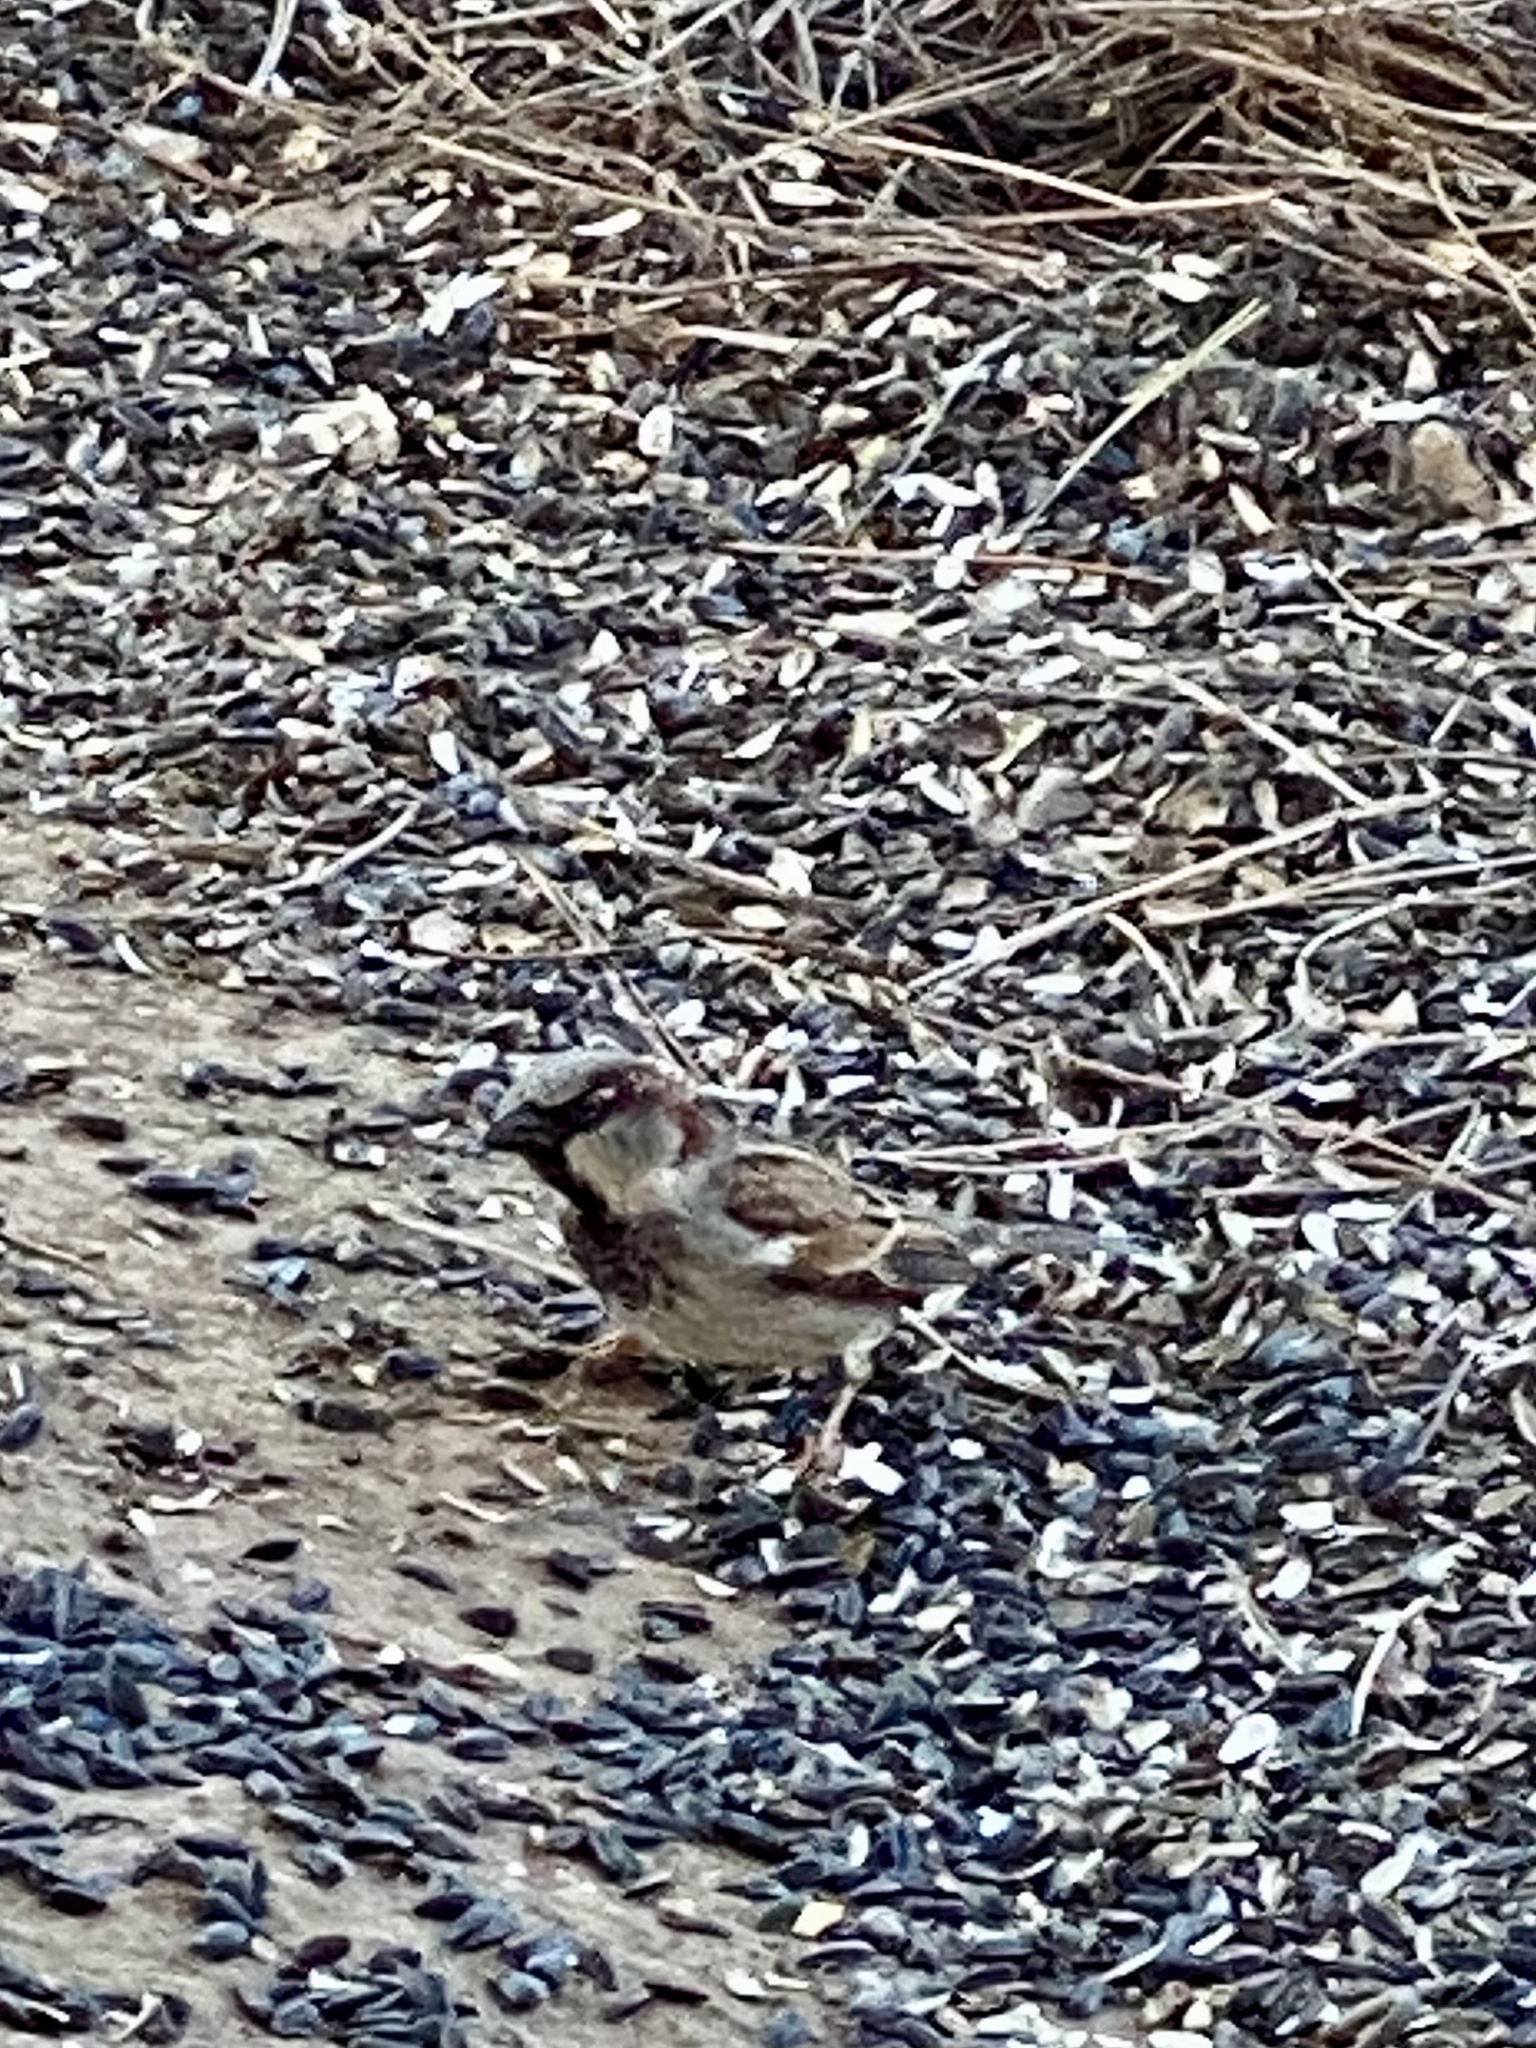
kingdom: Animalia
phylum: Chordata
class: Aves
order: Passeriformes
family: Passeridae
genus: Passer
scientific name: Passer domesticus
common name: House sparrow
